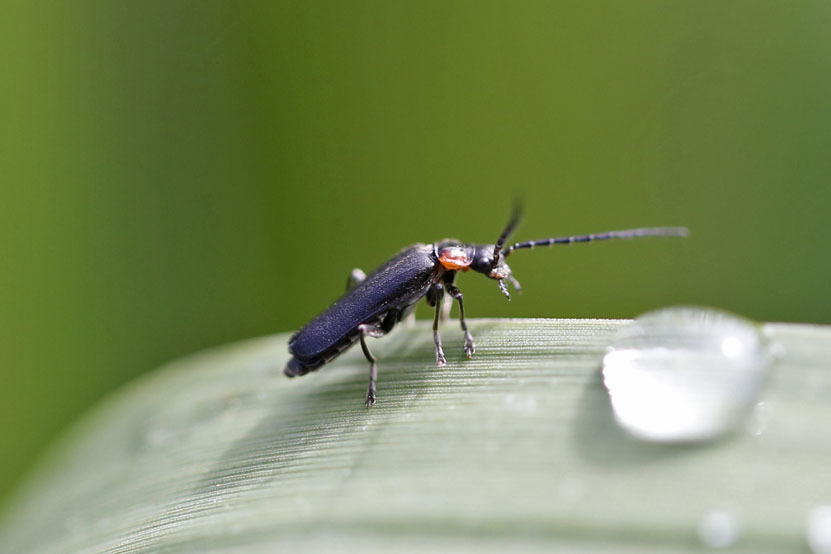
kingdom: Animalia
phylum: Arthropoda
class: Insecta
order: Coleoptera
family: Cantharidae
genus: Cantharis
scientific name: Cantharis tuberculata
